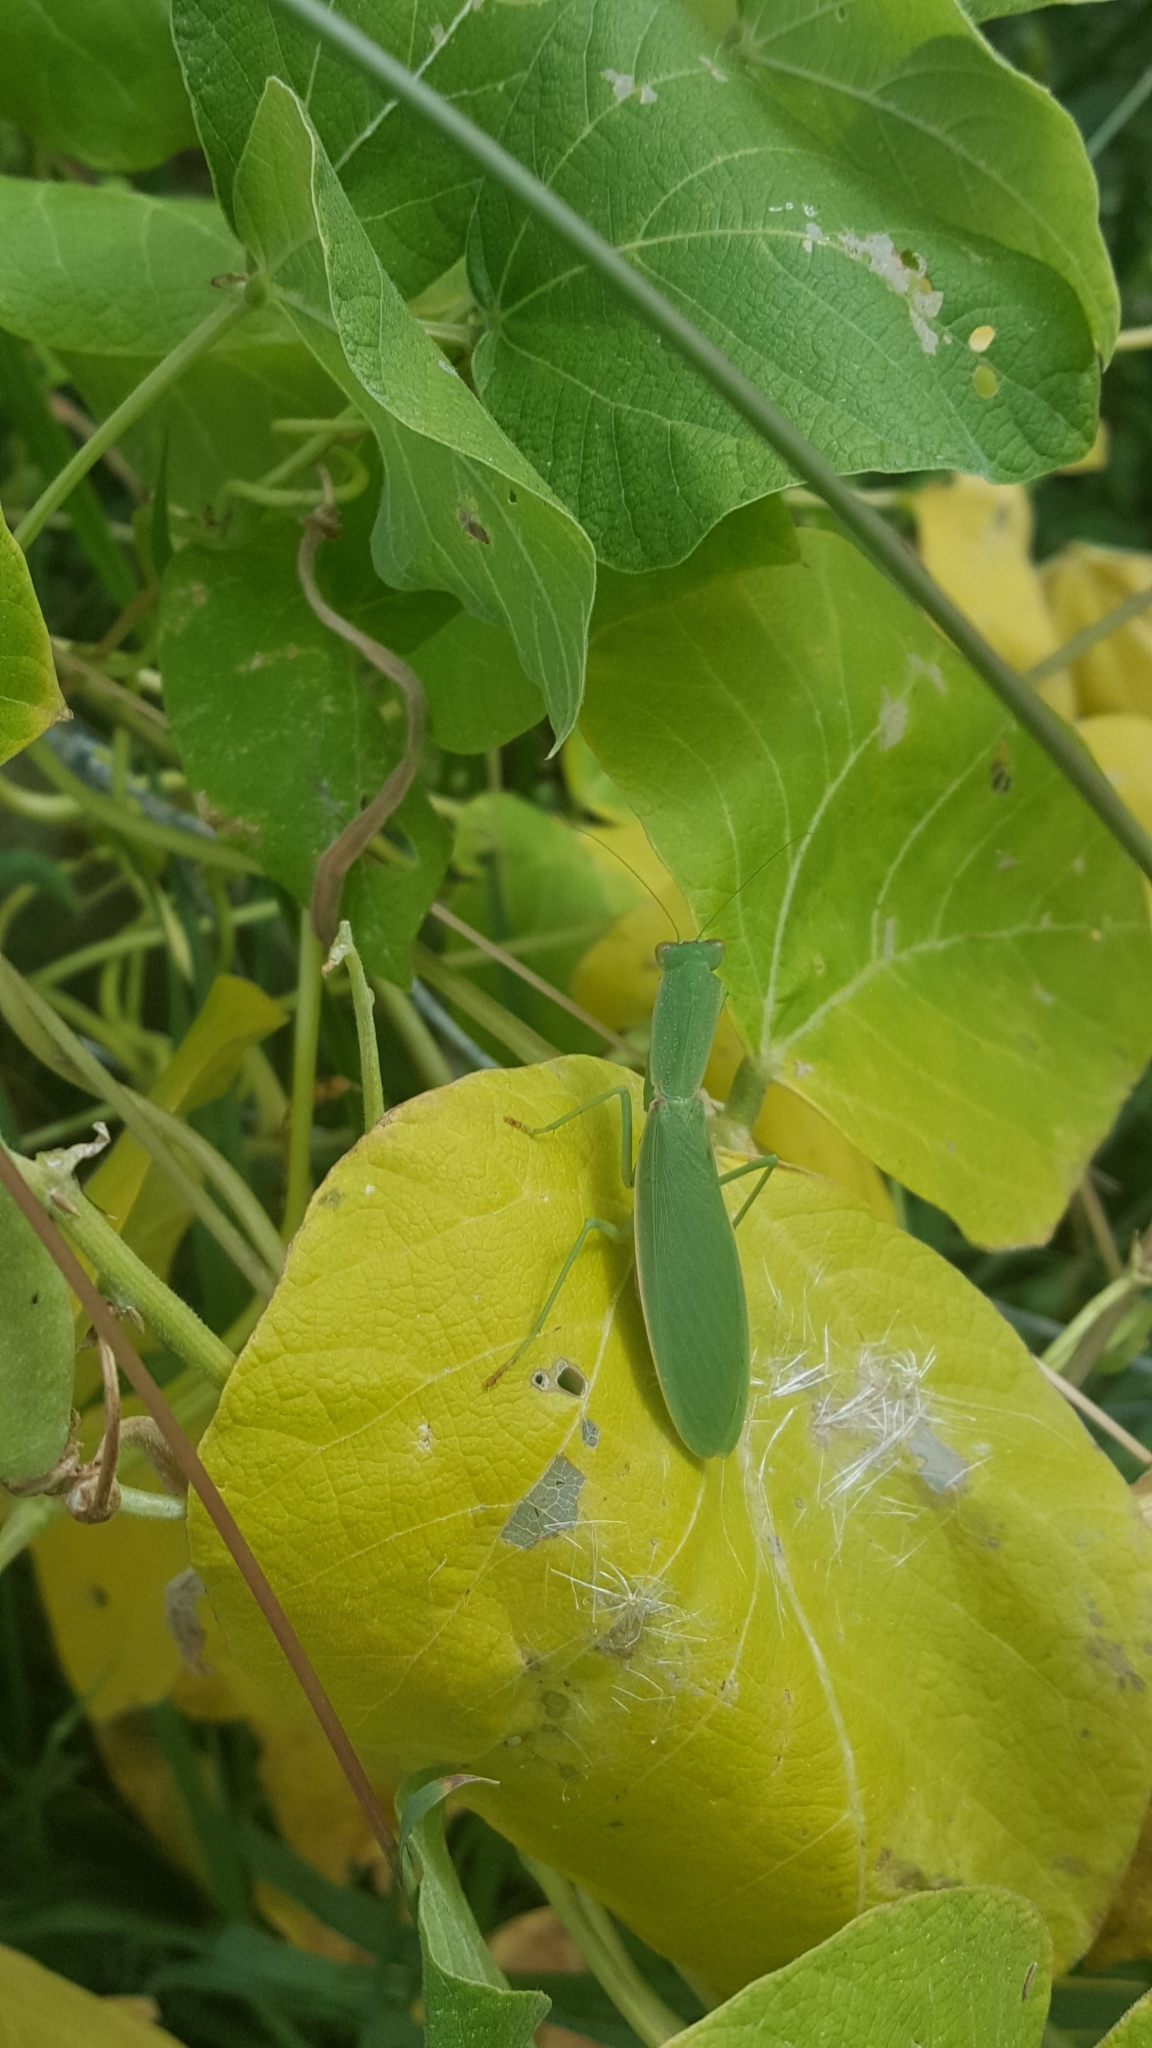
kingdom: Animalia
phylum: Arthropoda
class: Insecta
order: Mantodea
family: Mantidae
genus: Orthodera
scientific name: Orthodera novaezealandiae
